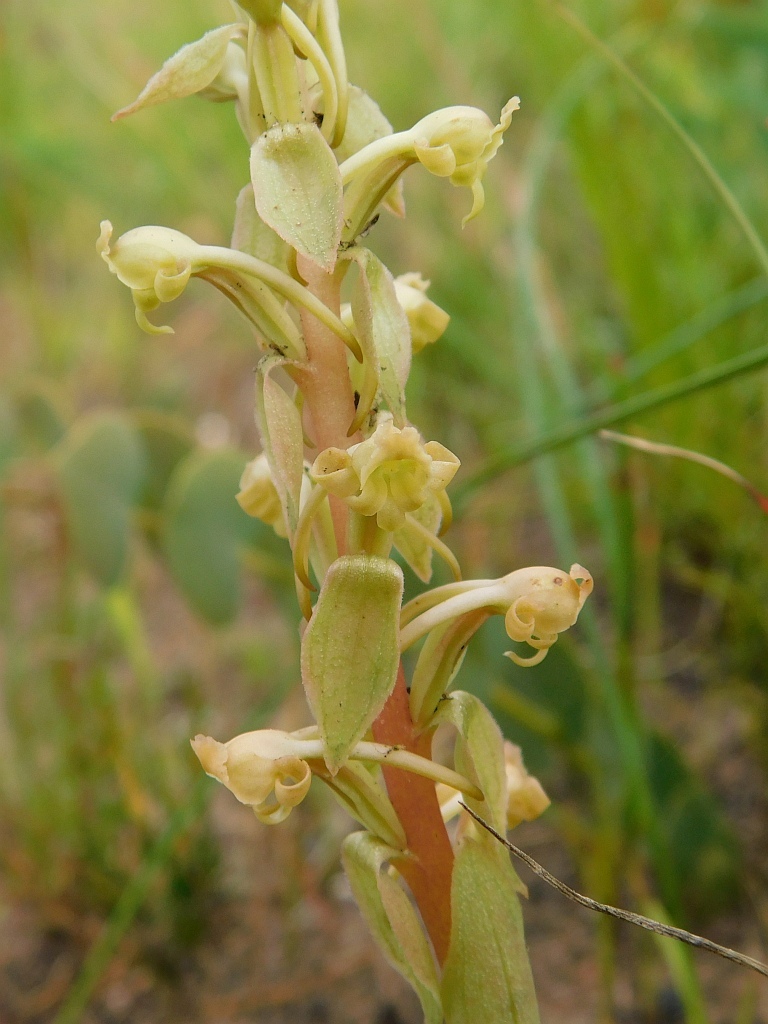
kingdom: Plantae
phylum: Tracheophyta
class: Liliopsida
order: Asparagales
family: Orchidaceae
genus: Satyrium
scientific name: Satyrium humile
